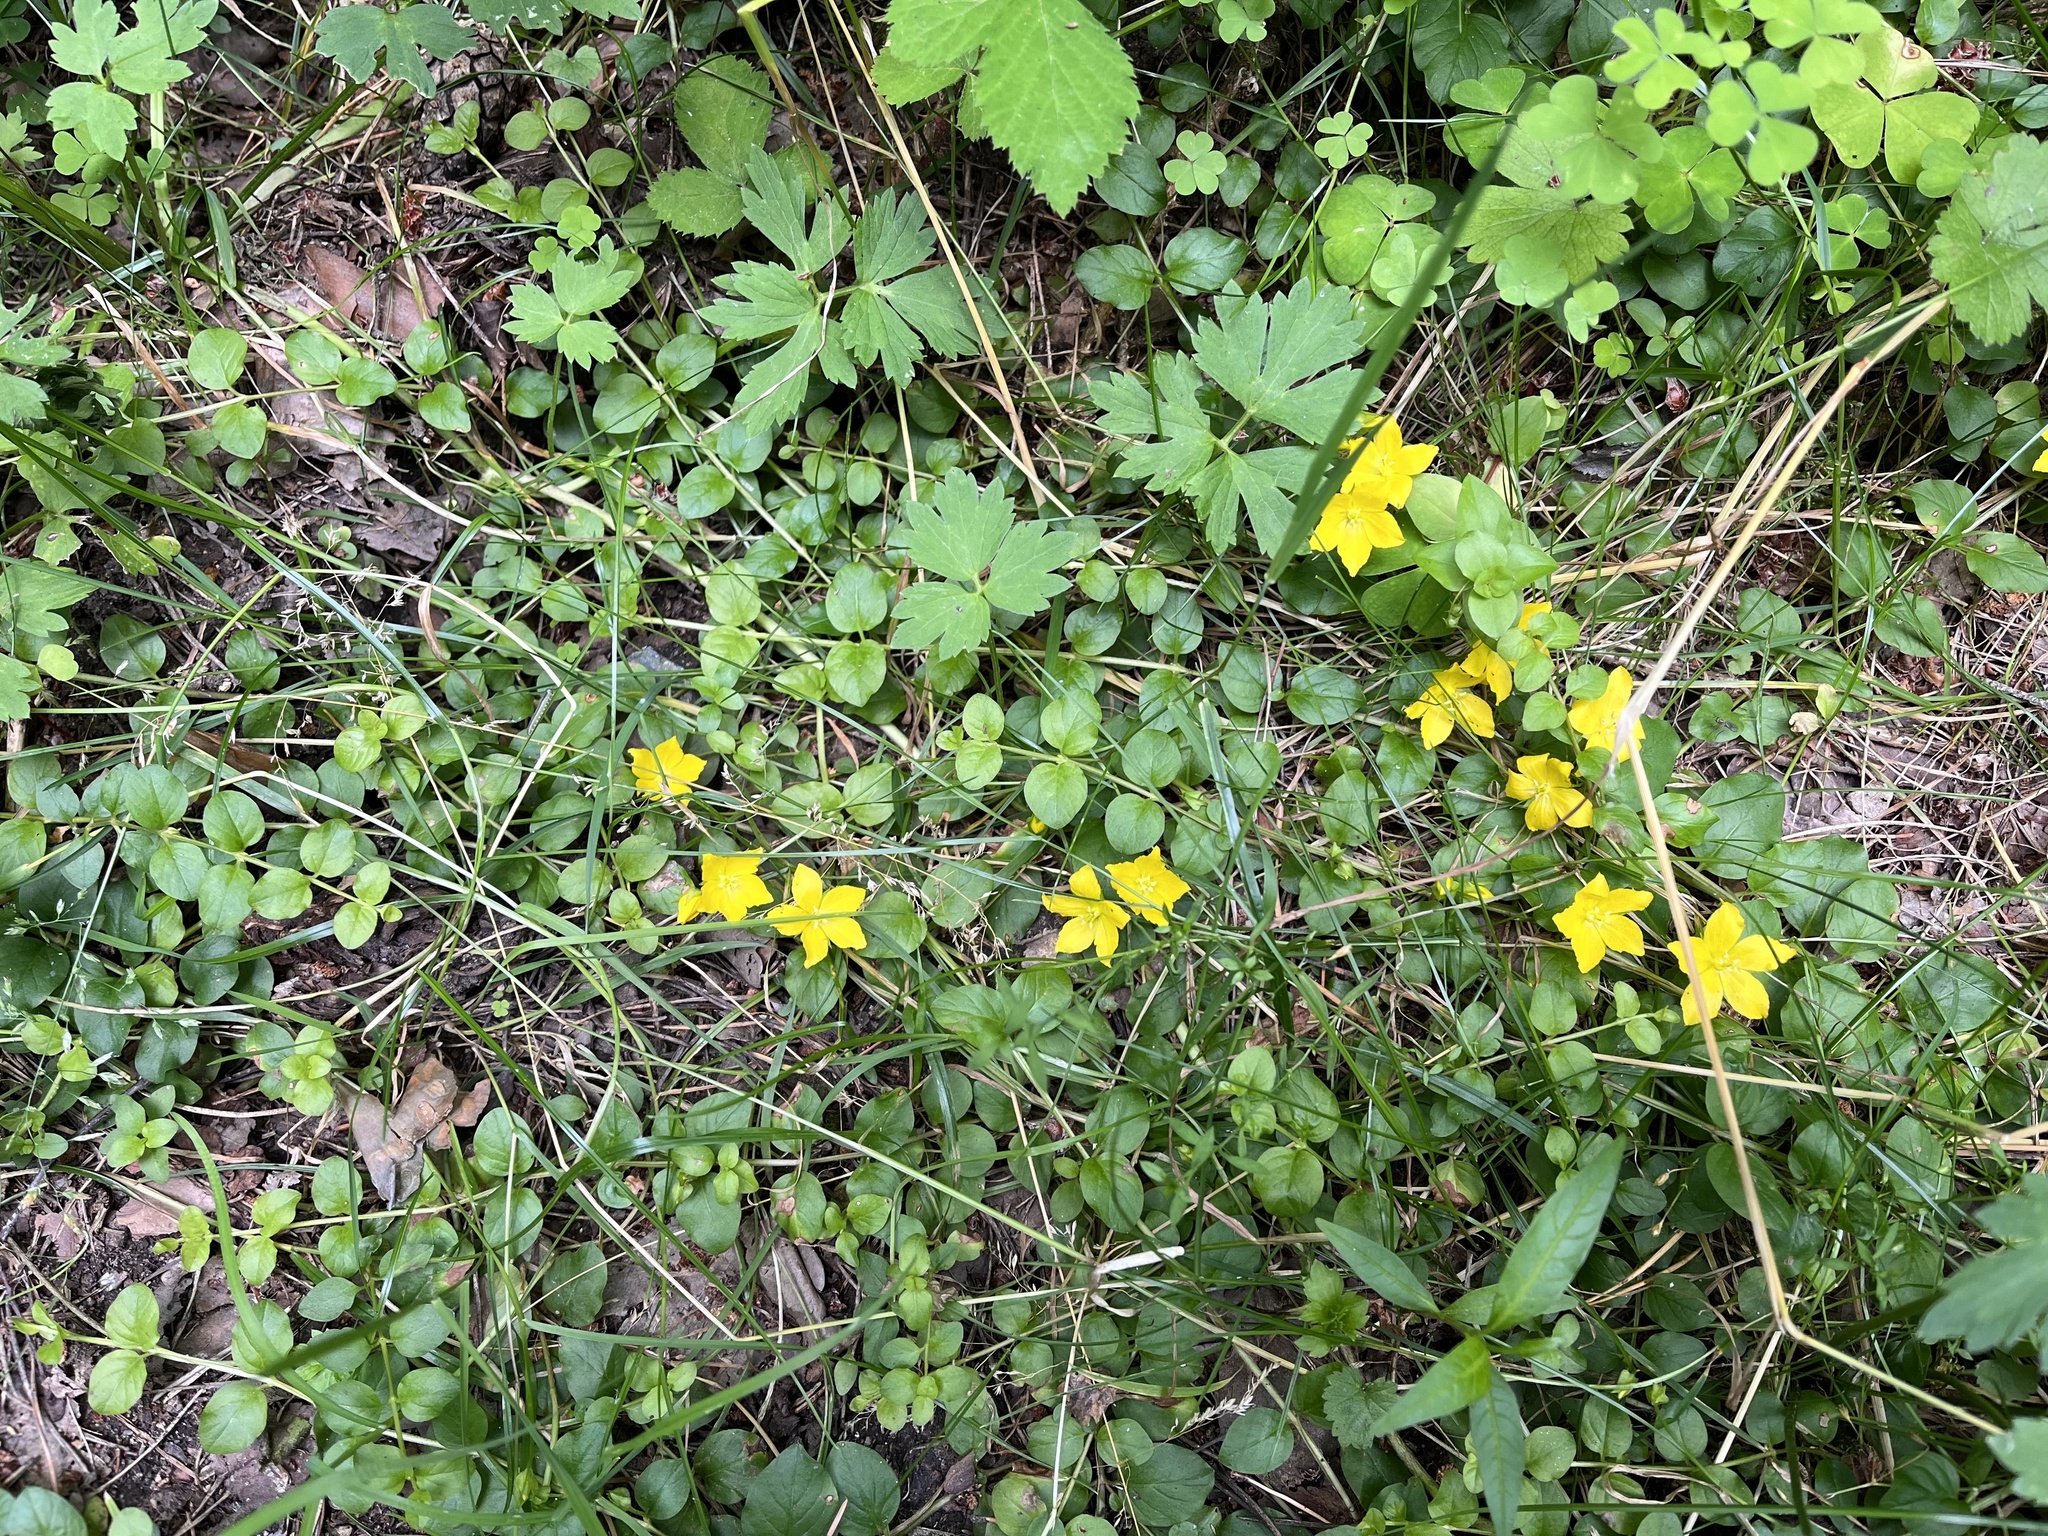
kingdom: Plantae
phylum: Tracheophyta
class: Magnoliopsida
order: Ericales
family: Primulaceae
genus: Lysimachia
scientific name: Lysimachia nummularia
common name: Moneywort
